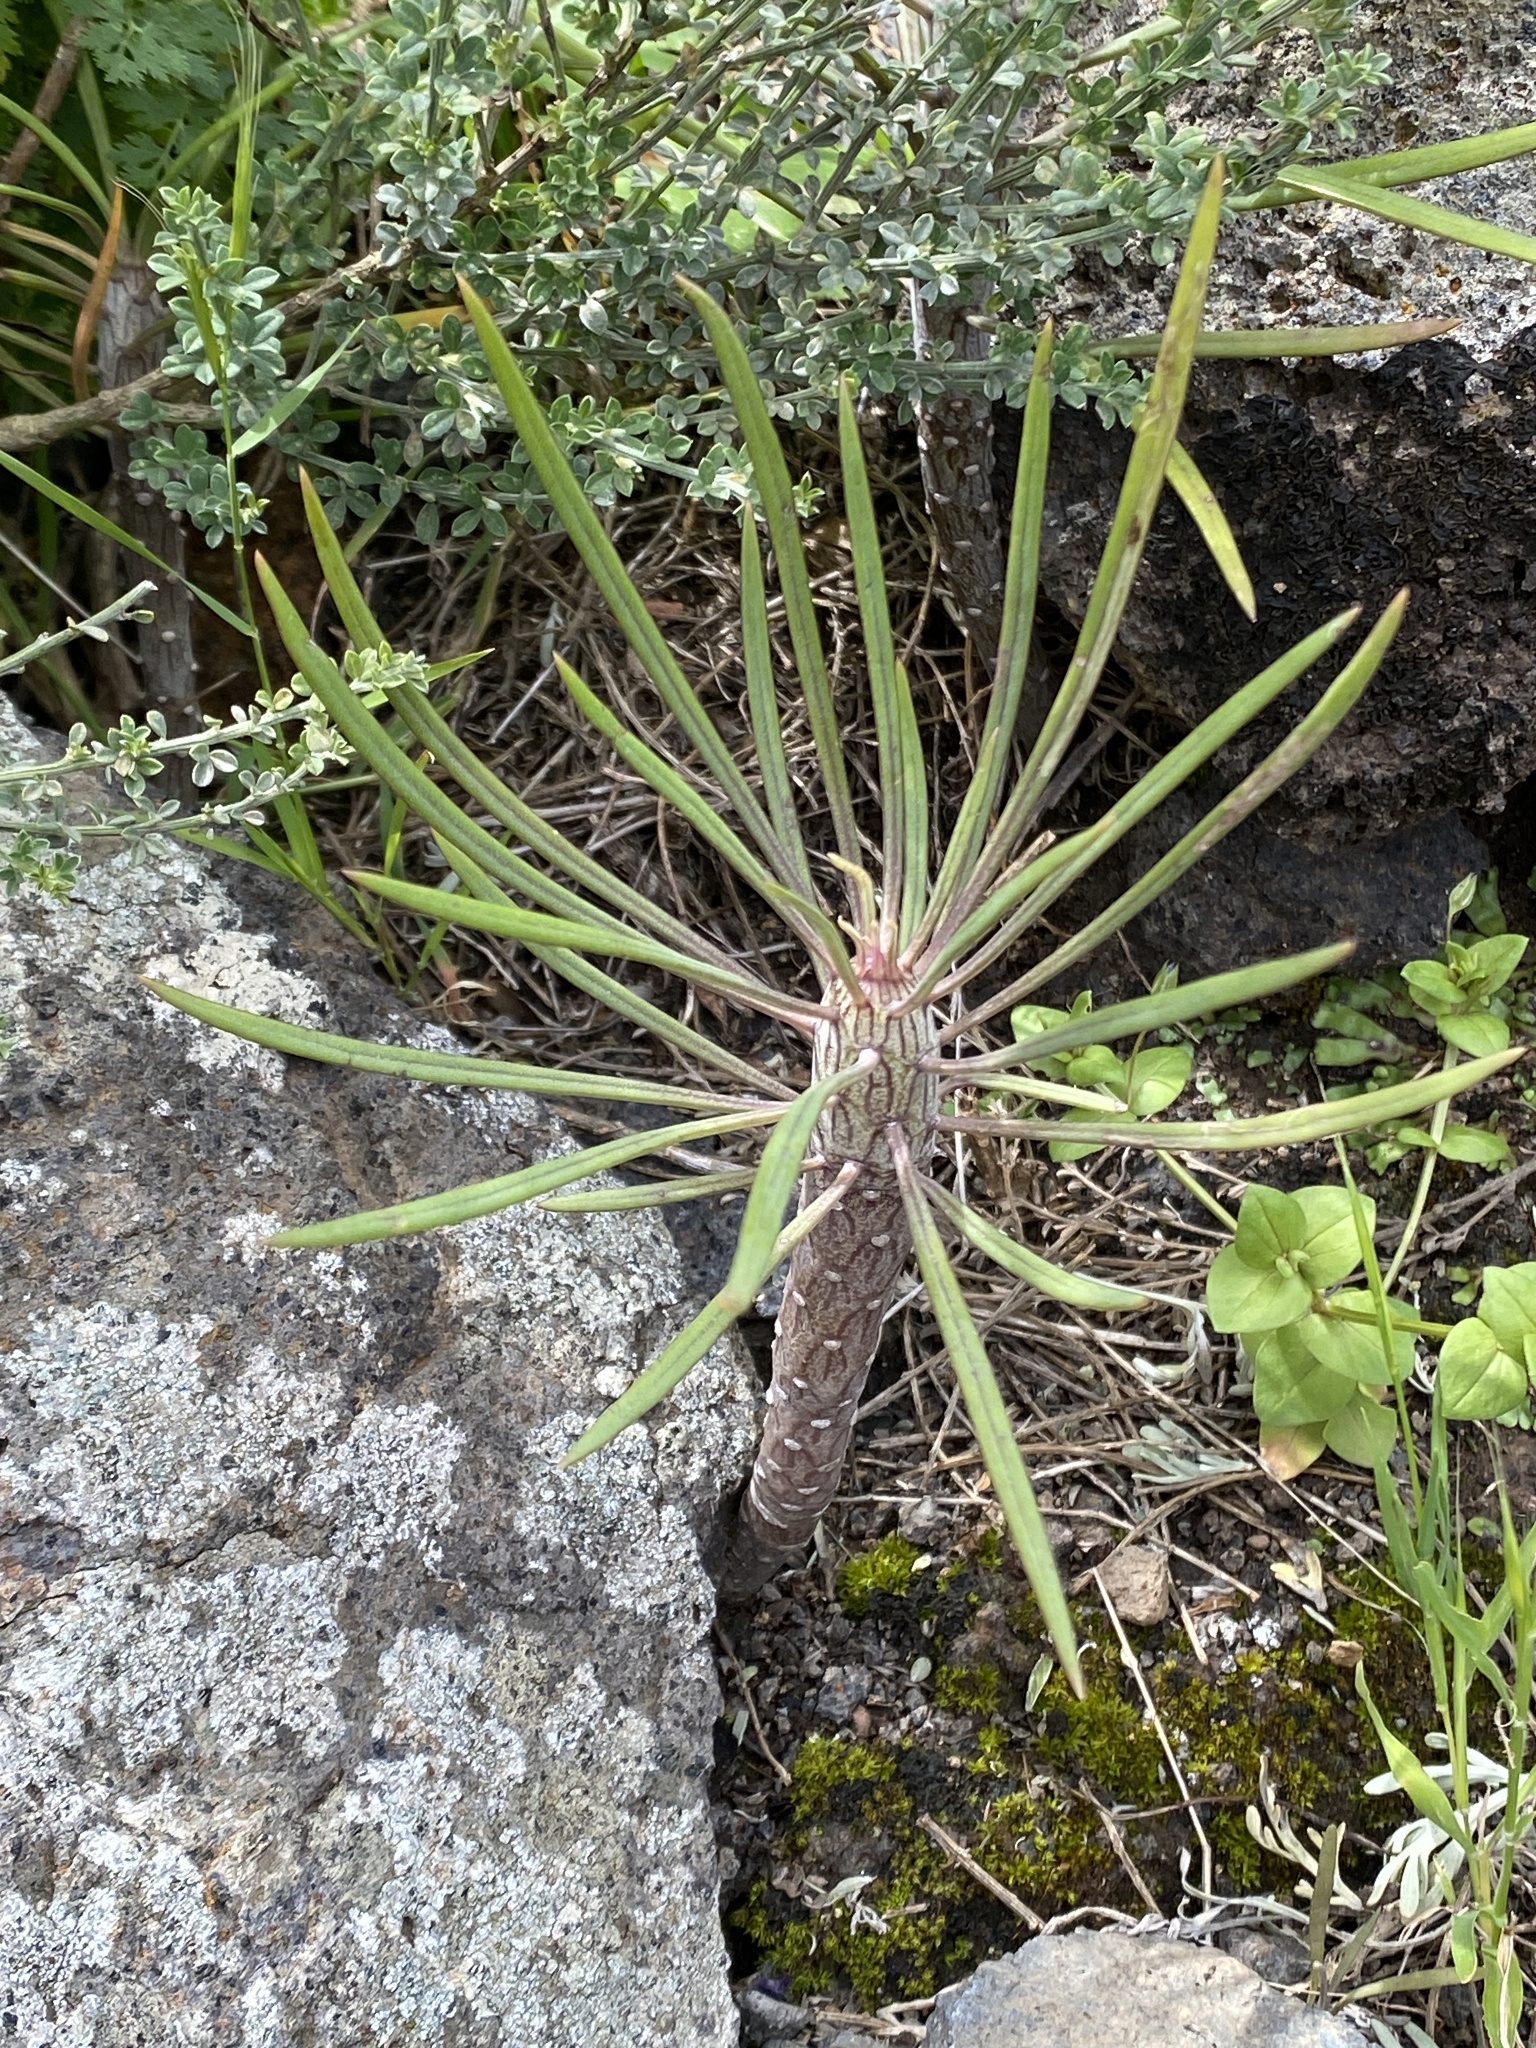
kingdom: Plantae
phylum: Tracheophyta
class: Magnoliopsida
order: Asterales
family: Asteraceae
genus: Kleinia
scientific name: Kleinia neriifolia
